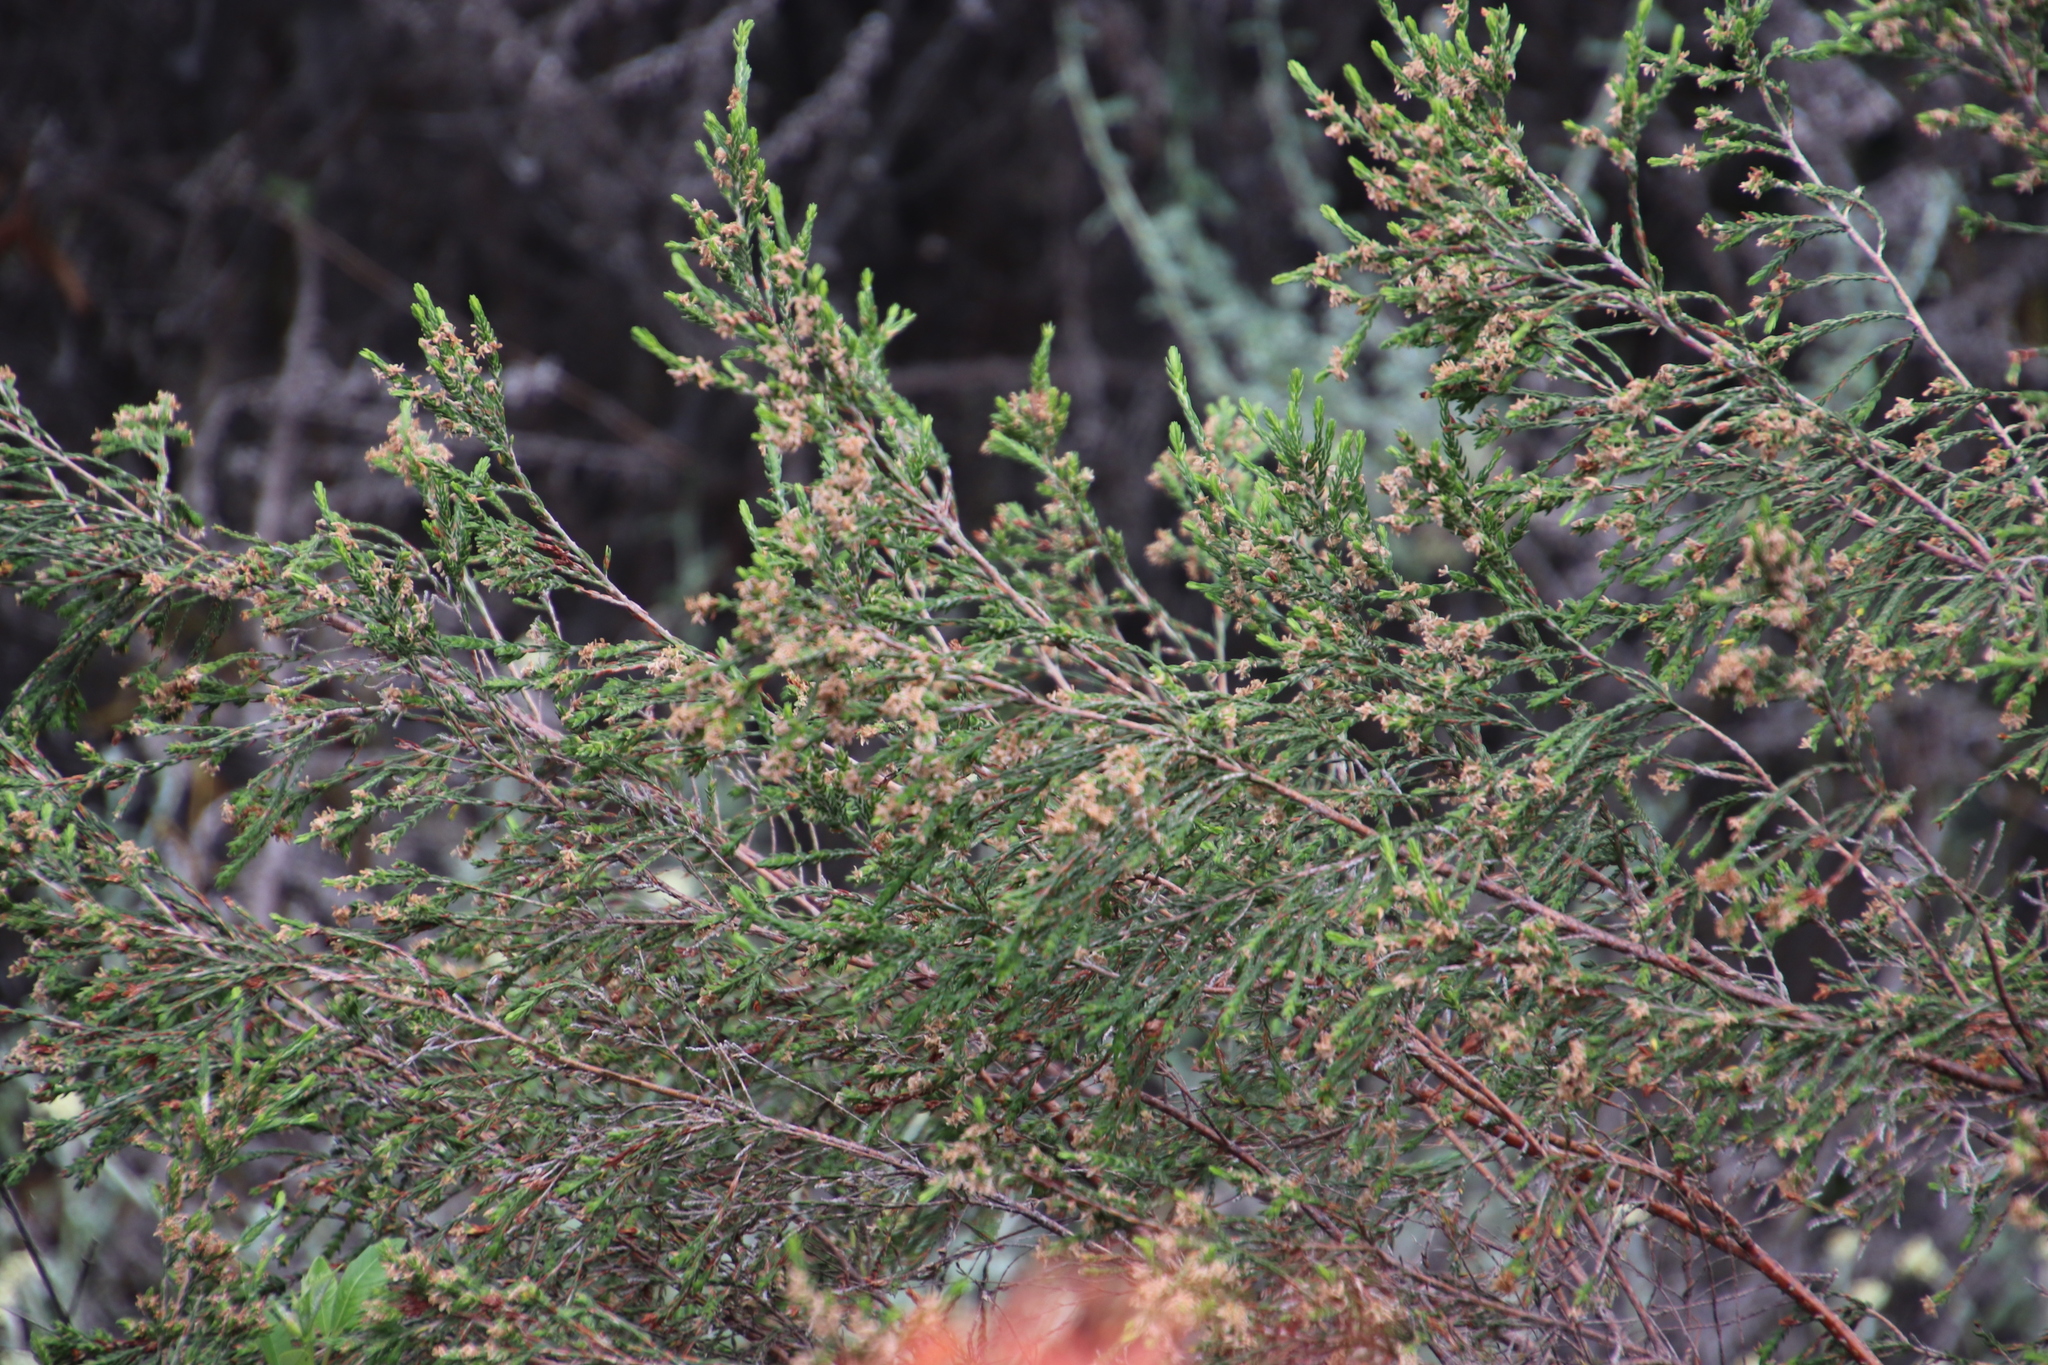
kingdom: Plantae
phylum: Tracheophyta
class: Magnoliopsida
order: Malvales
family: Thymelaeaceae
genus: Passerina
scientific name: Passerina corymbosa
